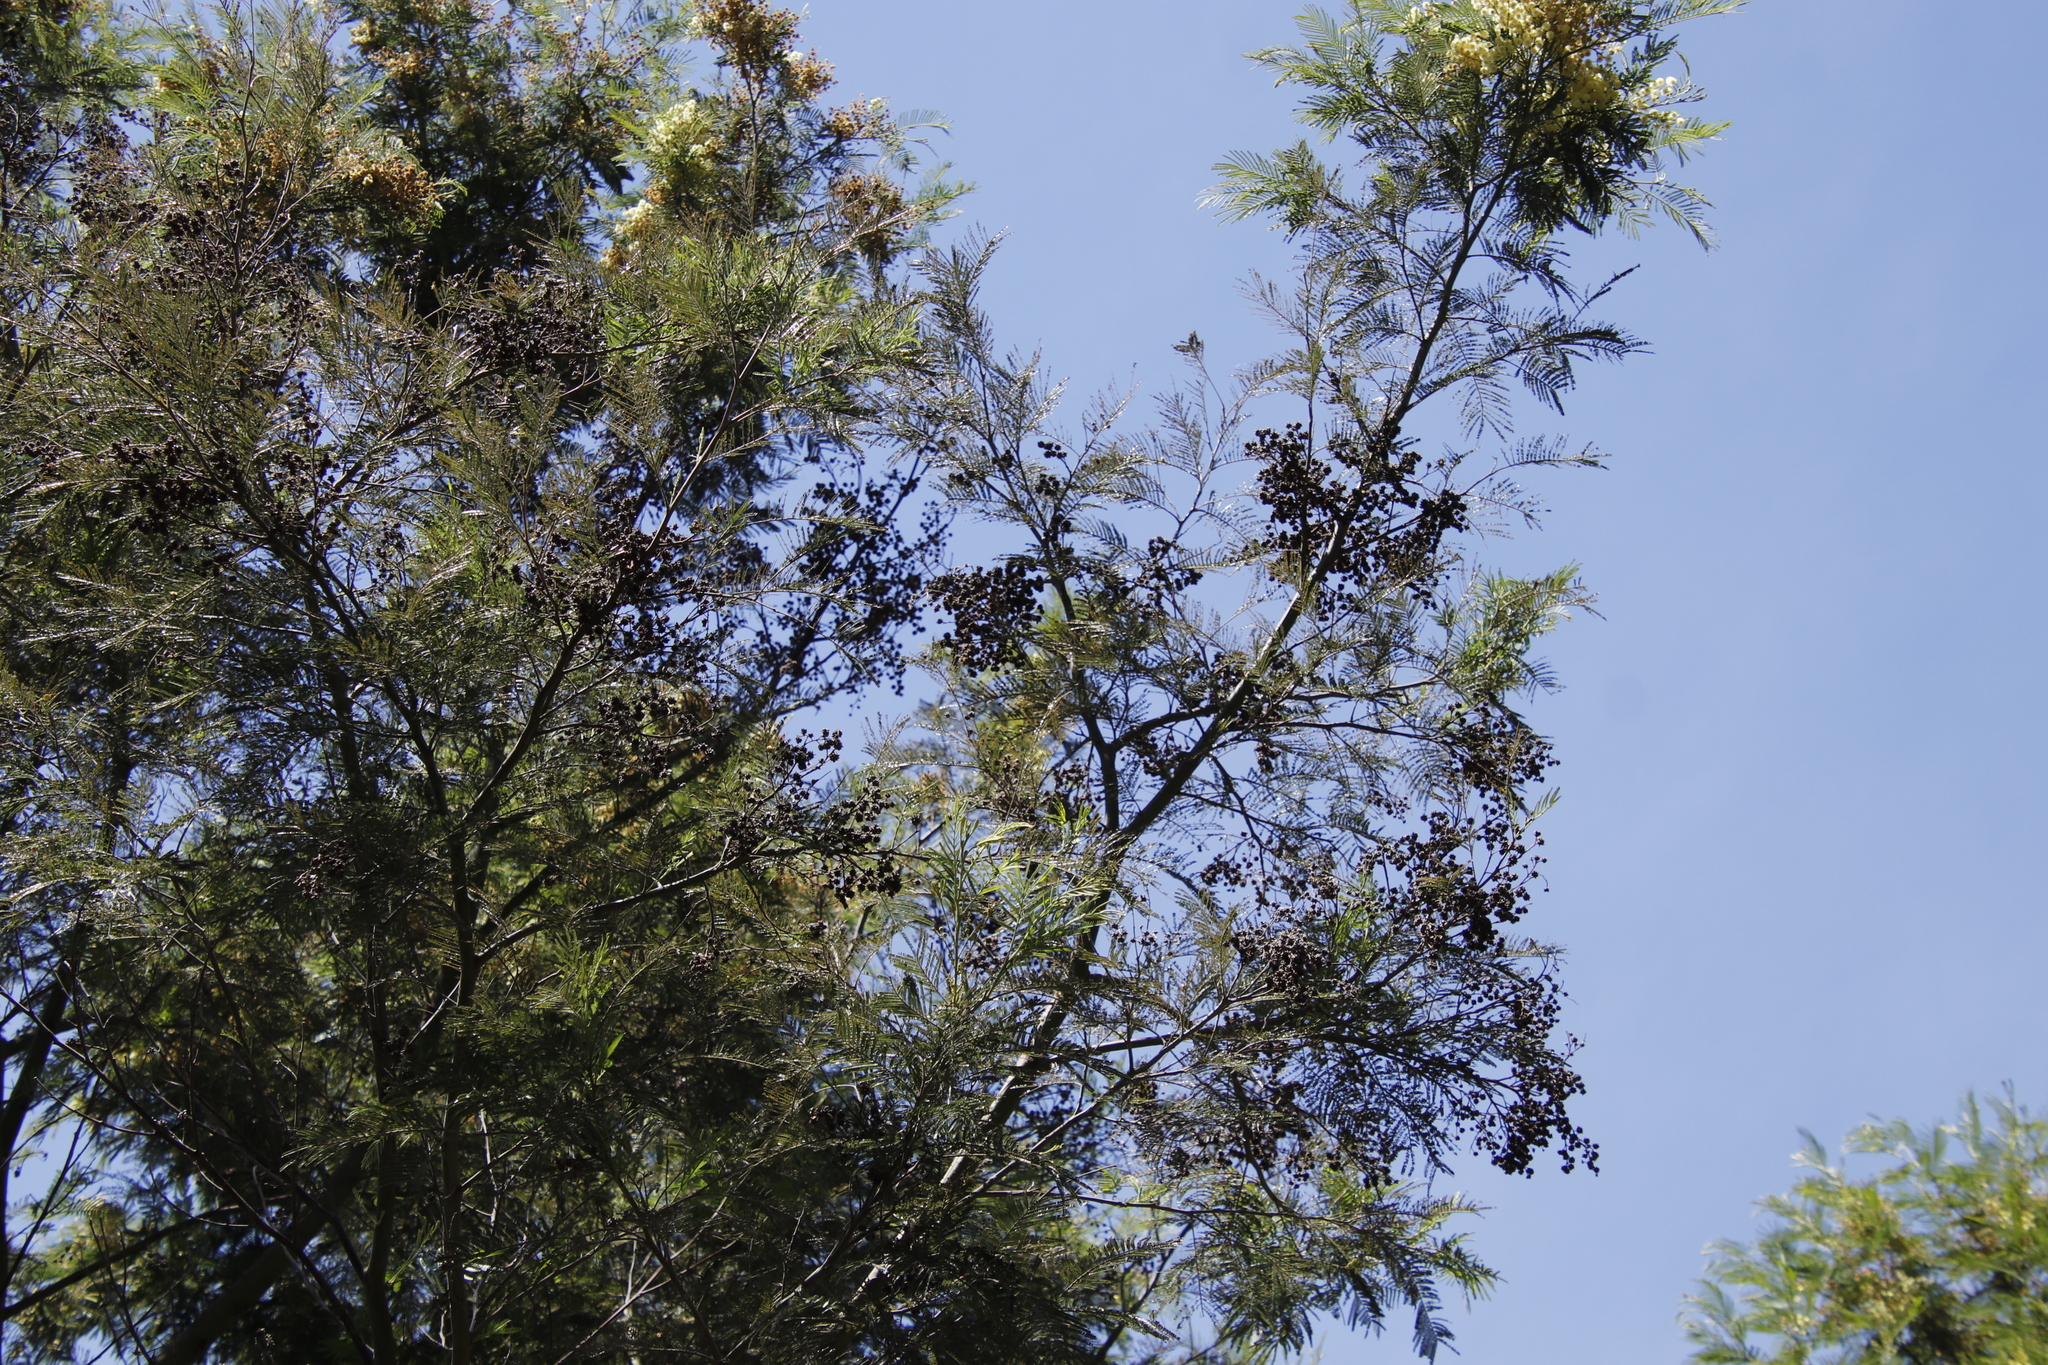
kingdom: Animalia
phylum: Arthropoda
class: Insecta
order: Diptera
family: Cecidomyiidae
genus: Dasineura
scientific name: Dasineura rubiformis
